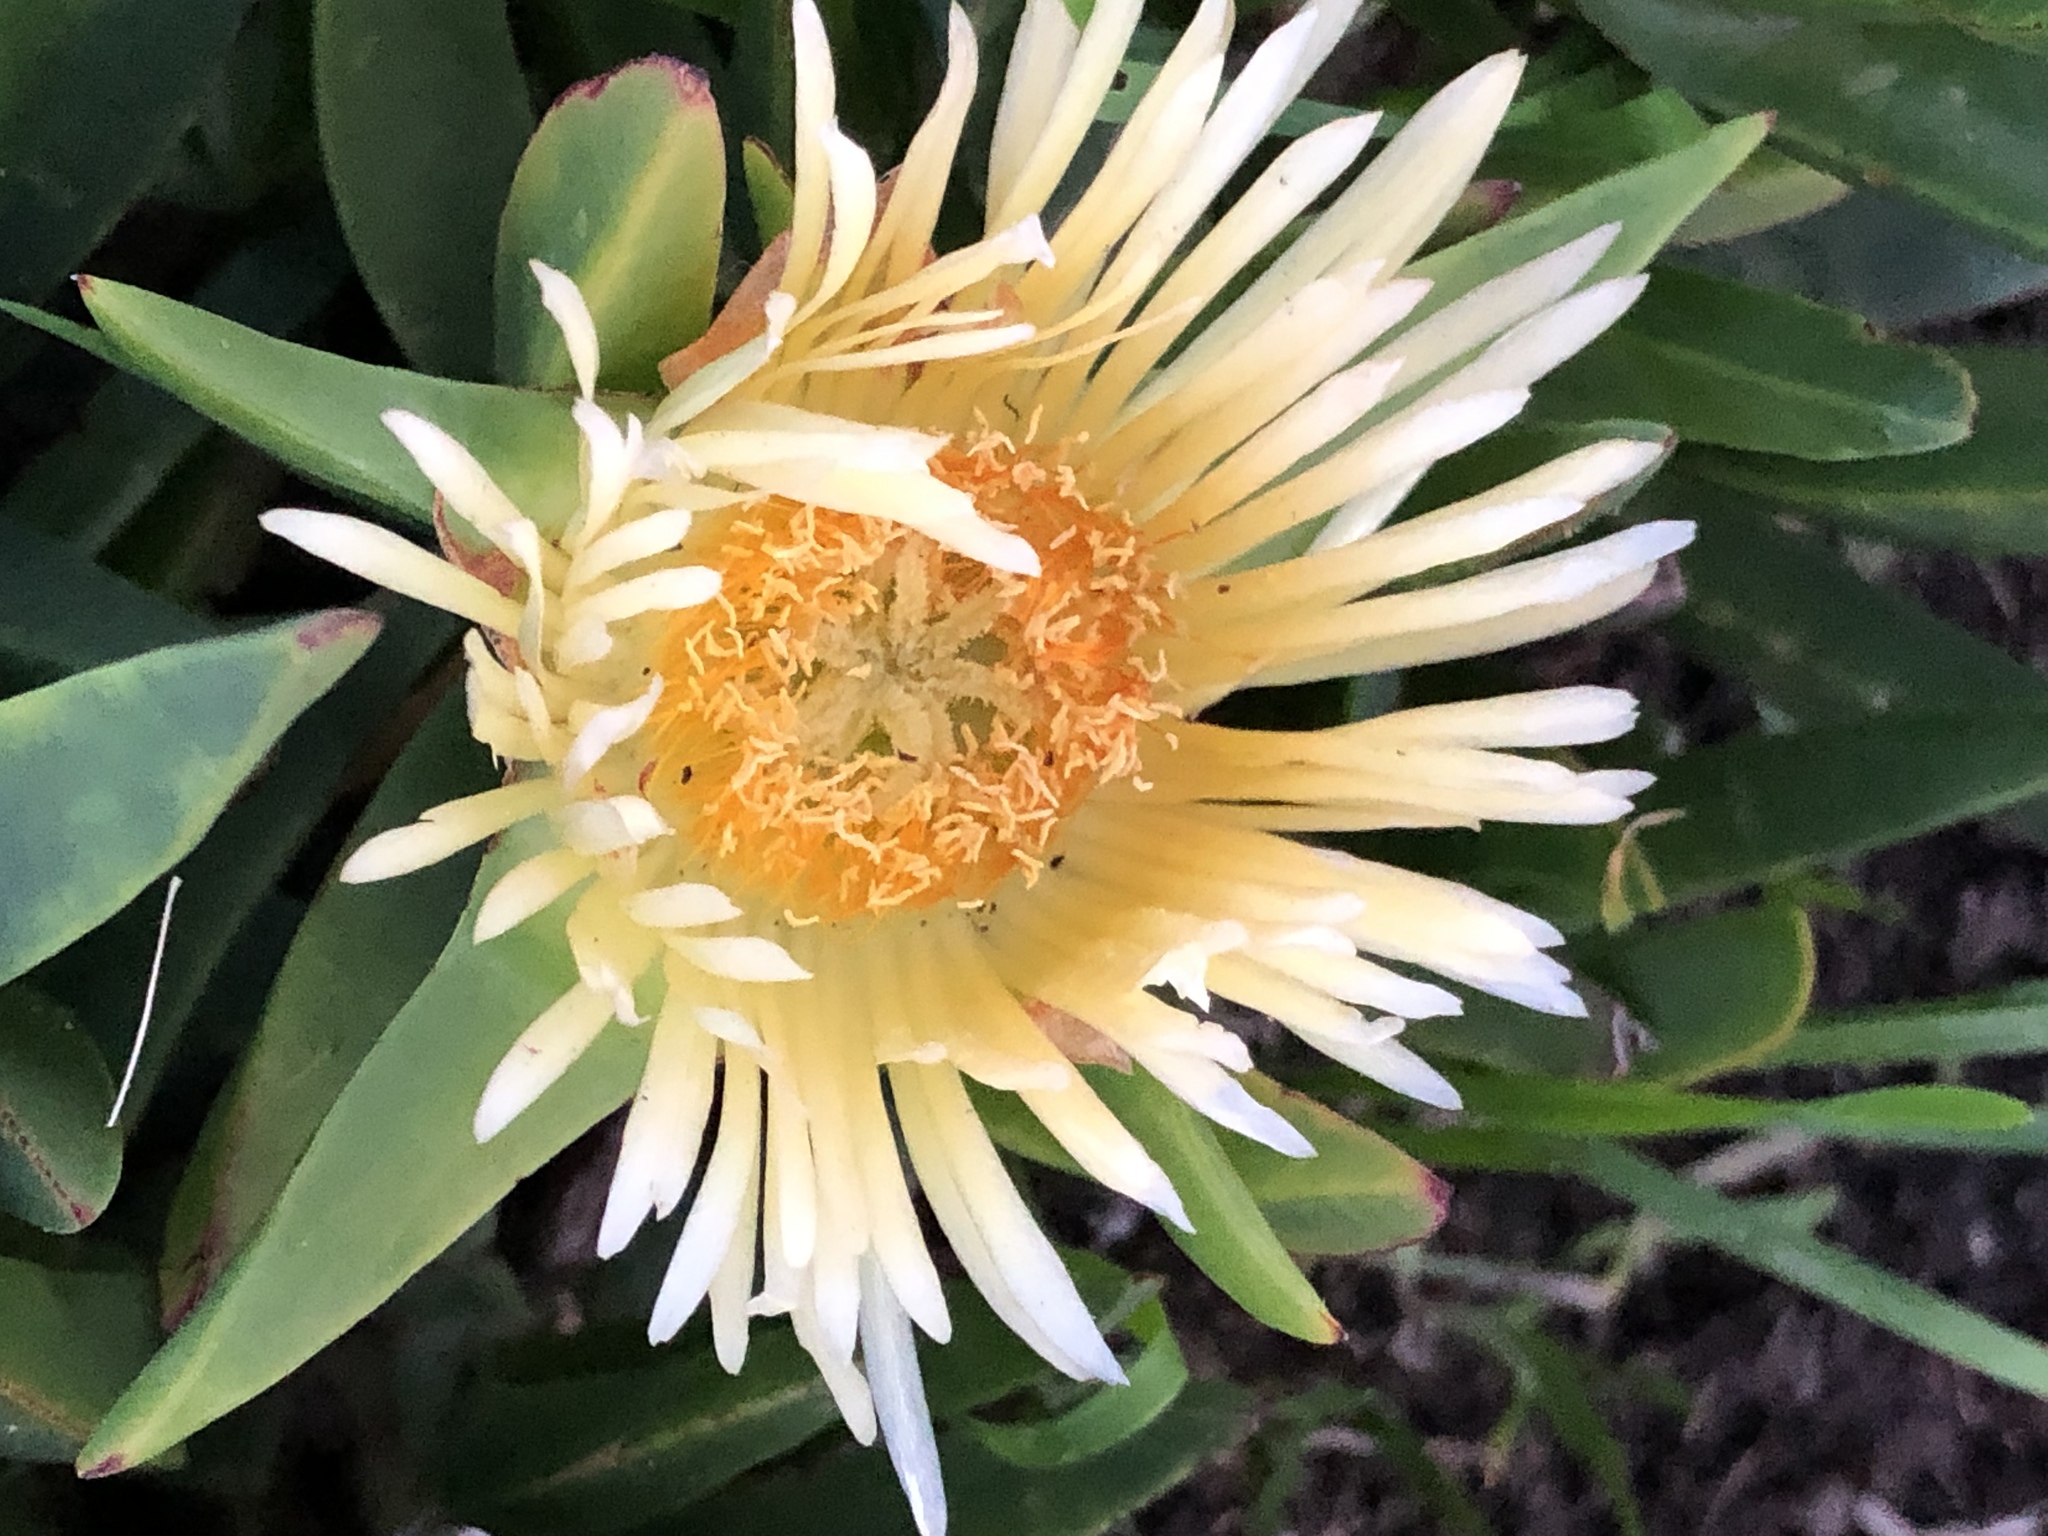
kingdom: Plantae
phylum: Tracheophyta
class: Magnoliopsida
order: Caryophyllales
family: Aizoaceae
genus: Carpobrotus
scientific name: Carpobrotus edulis
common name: Hottentot-fig
